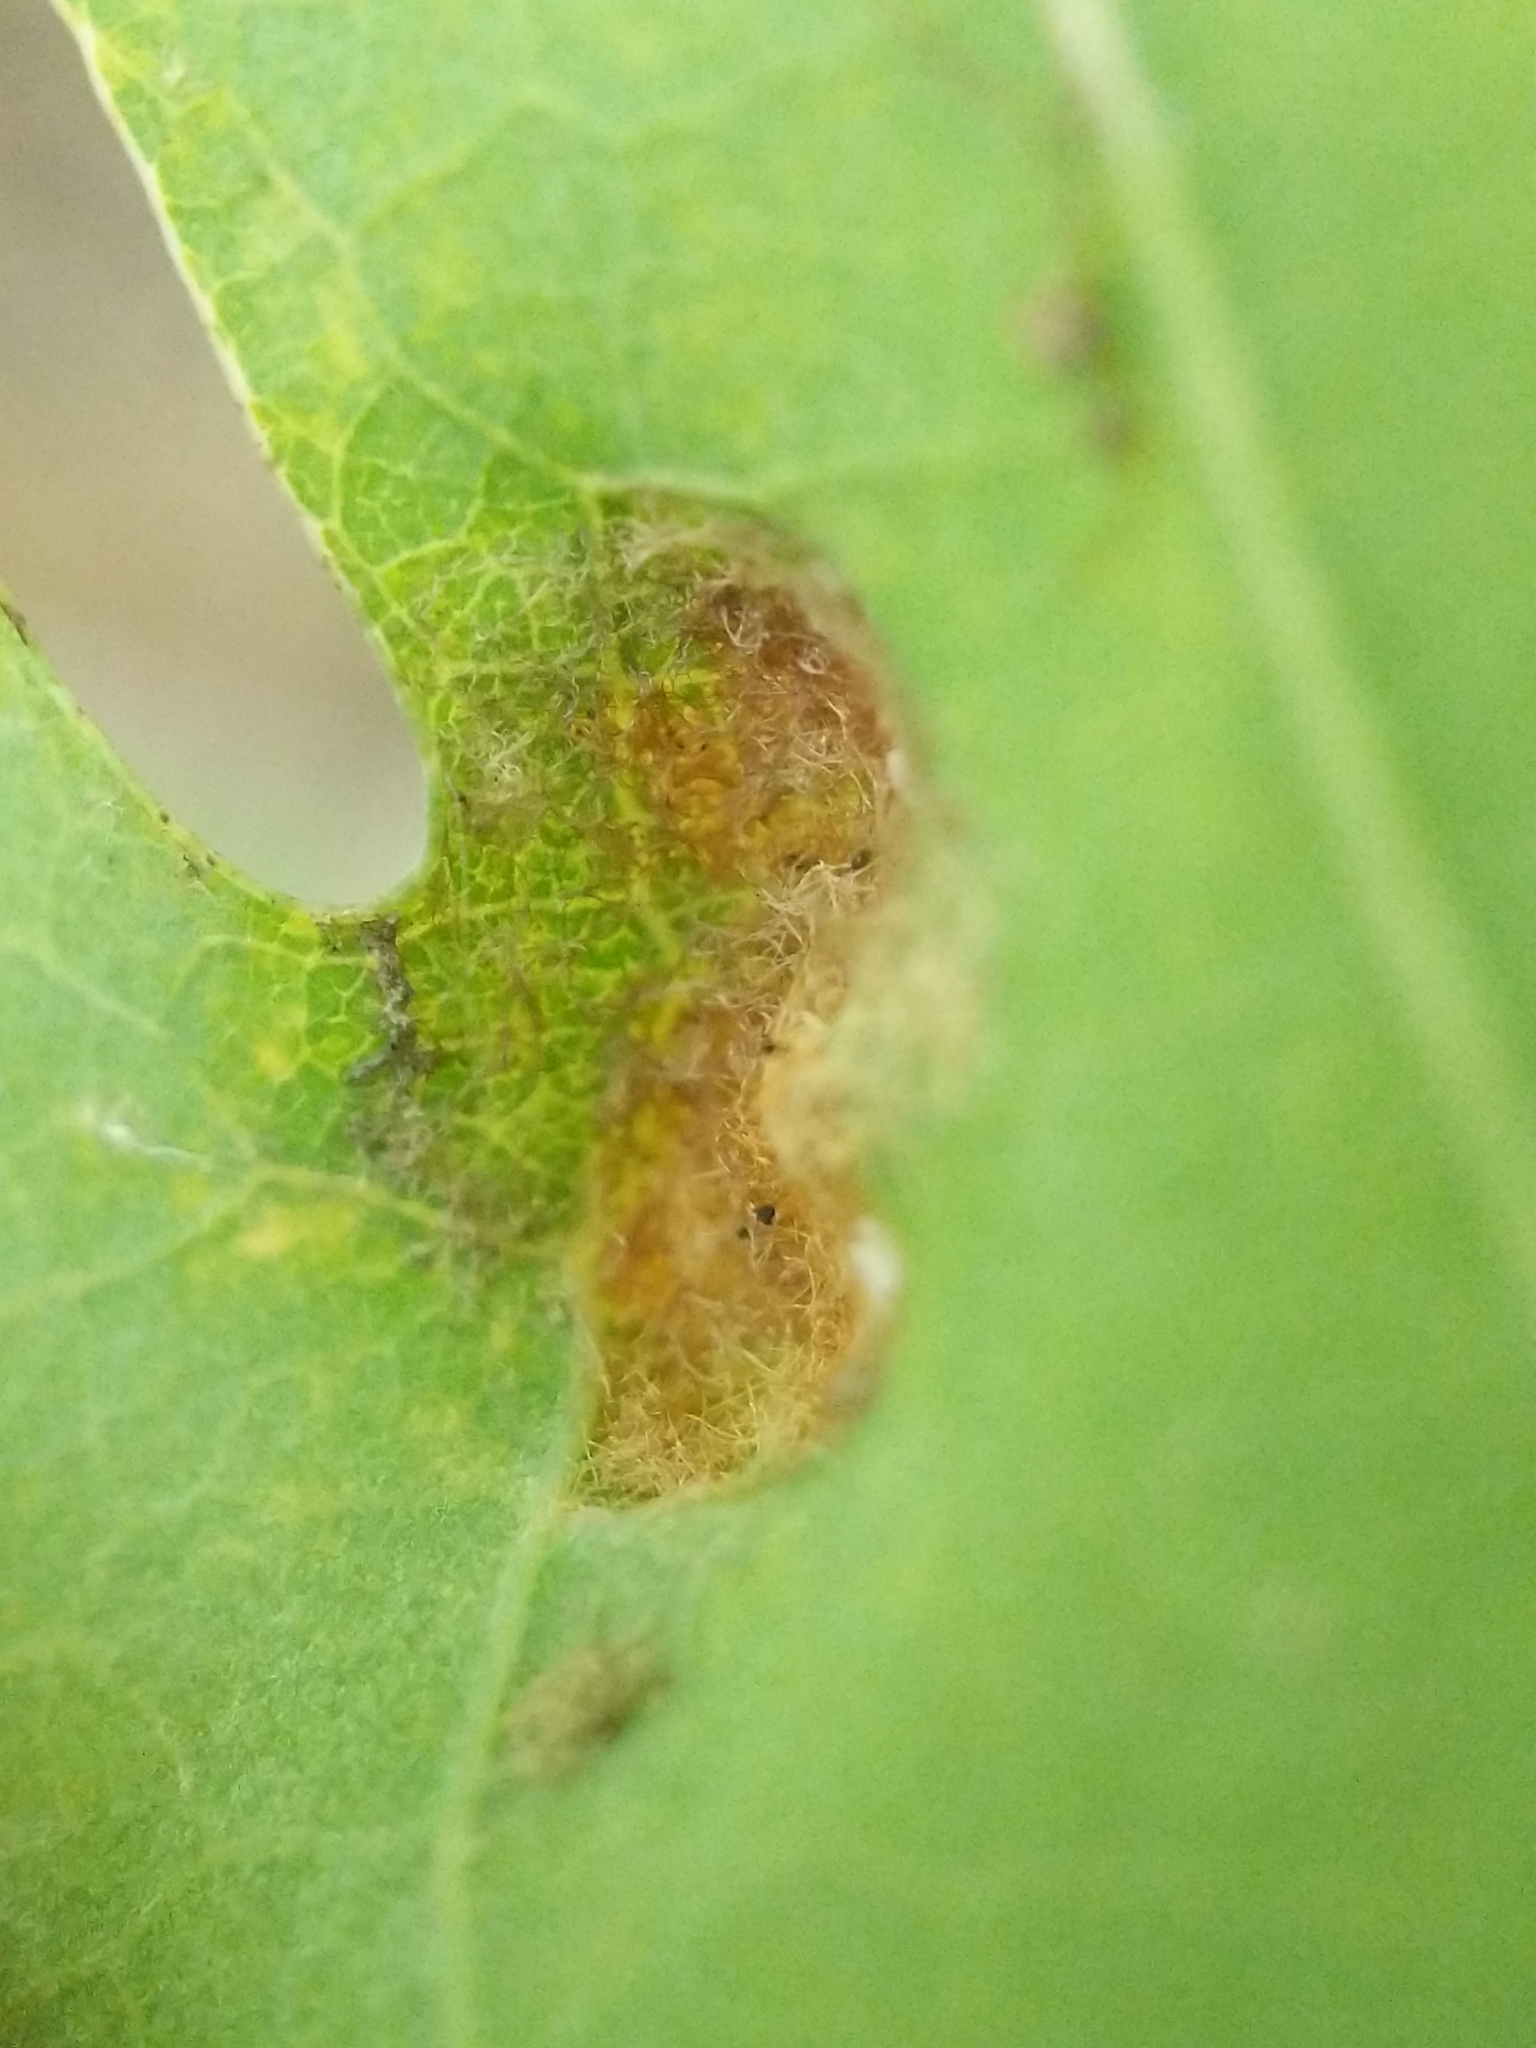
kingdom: Animalia
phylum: Arthropoda
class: Arachnida
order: Trombidiformes
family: Eriophyidae
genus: Aceria
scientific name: Aceria
